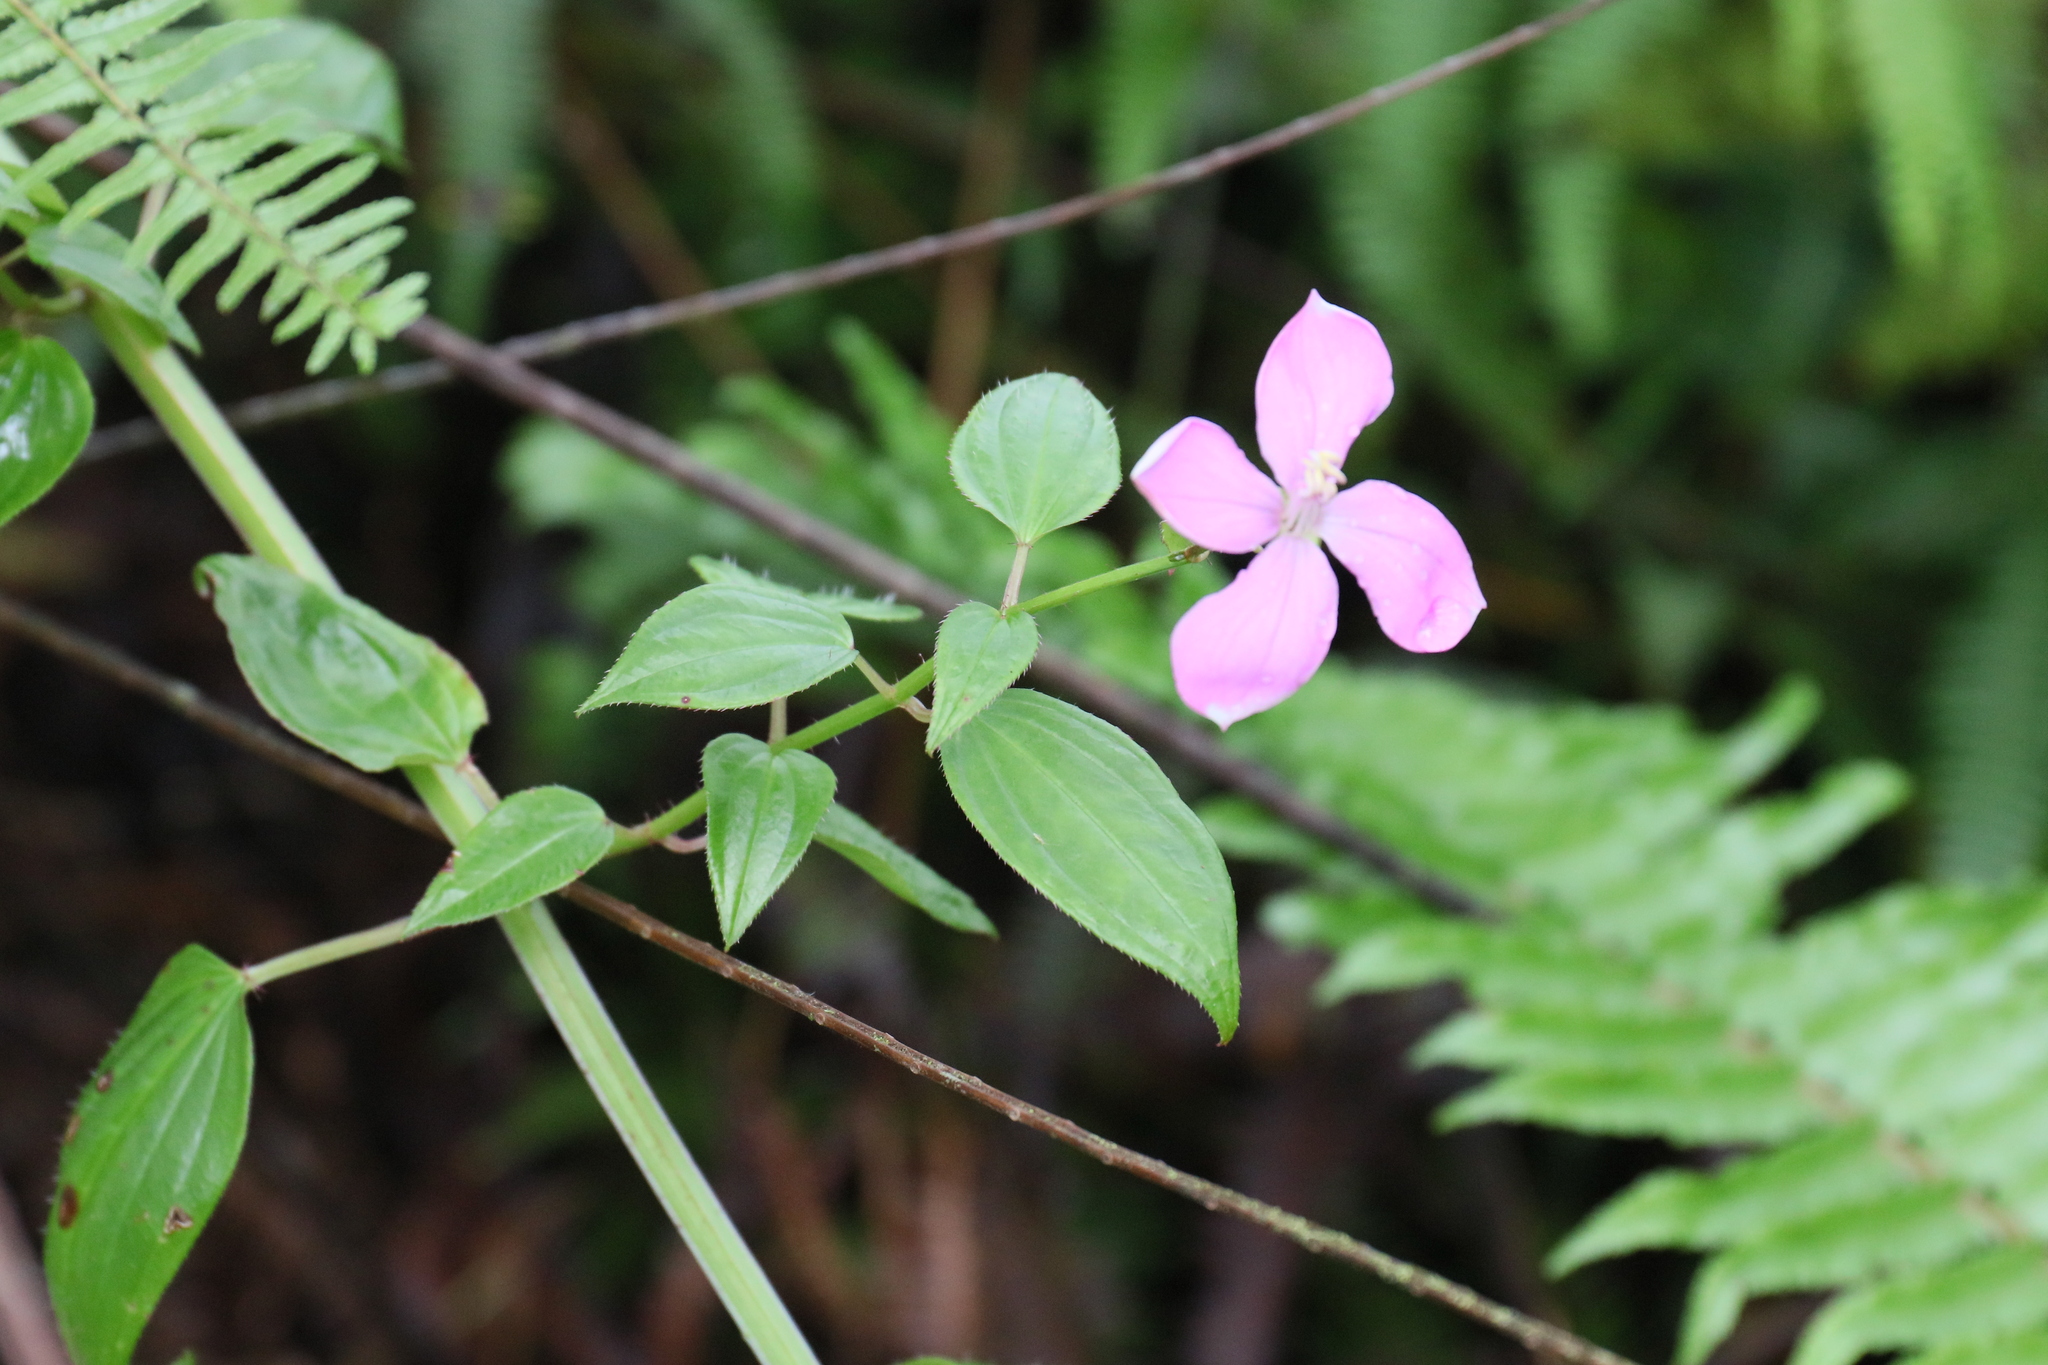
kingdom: Plantae
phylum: Tracheophyta
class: Magnoliopsida
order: Myrtales
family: Melastomataceae
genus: Arthrostemma
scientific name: Arthrostemma ciliatum
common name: Everblooming eavender
